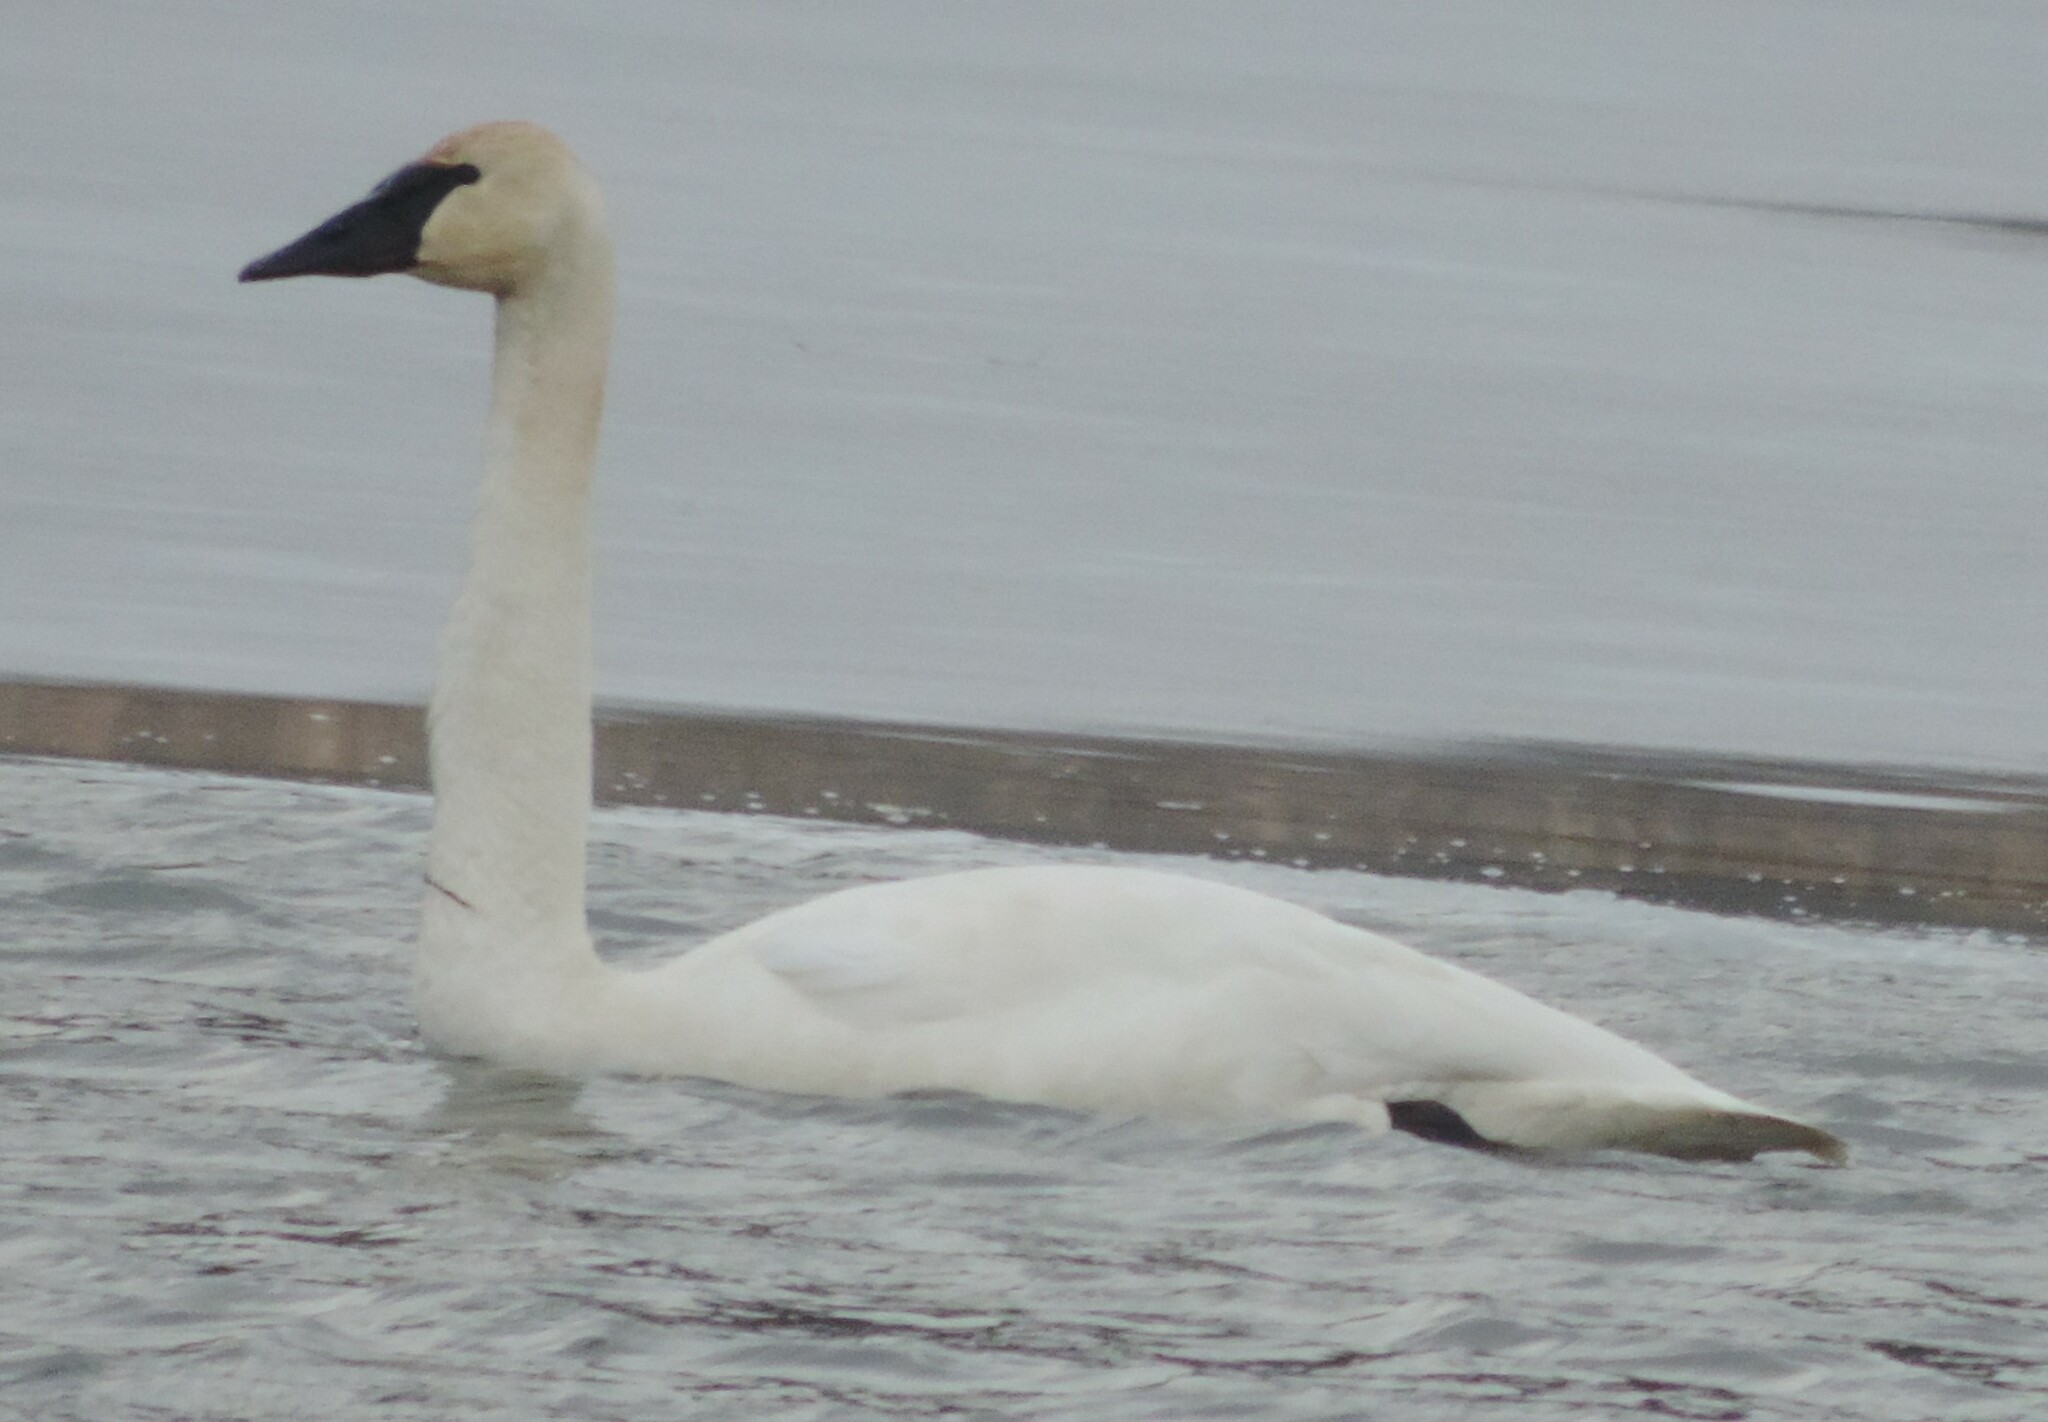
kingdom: Animalia
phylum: Chordata
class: Aves
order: Anseriformes
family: Anatidae
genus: Cygnus
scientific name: Cygnus buccinator
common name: Trumpeter swan
